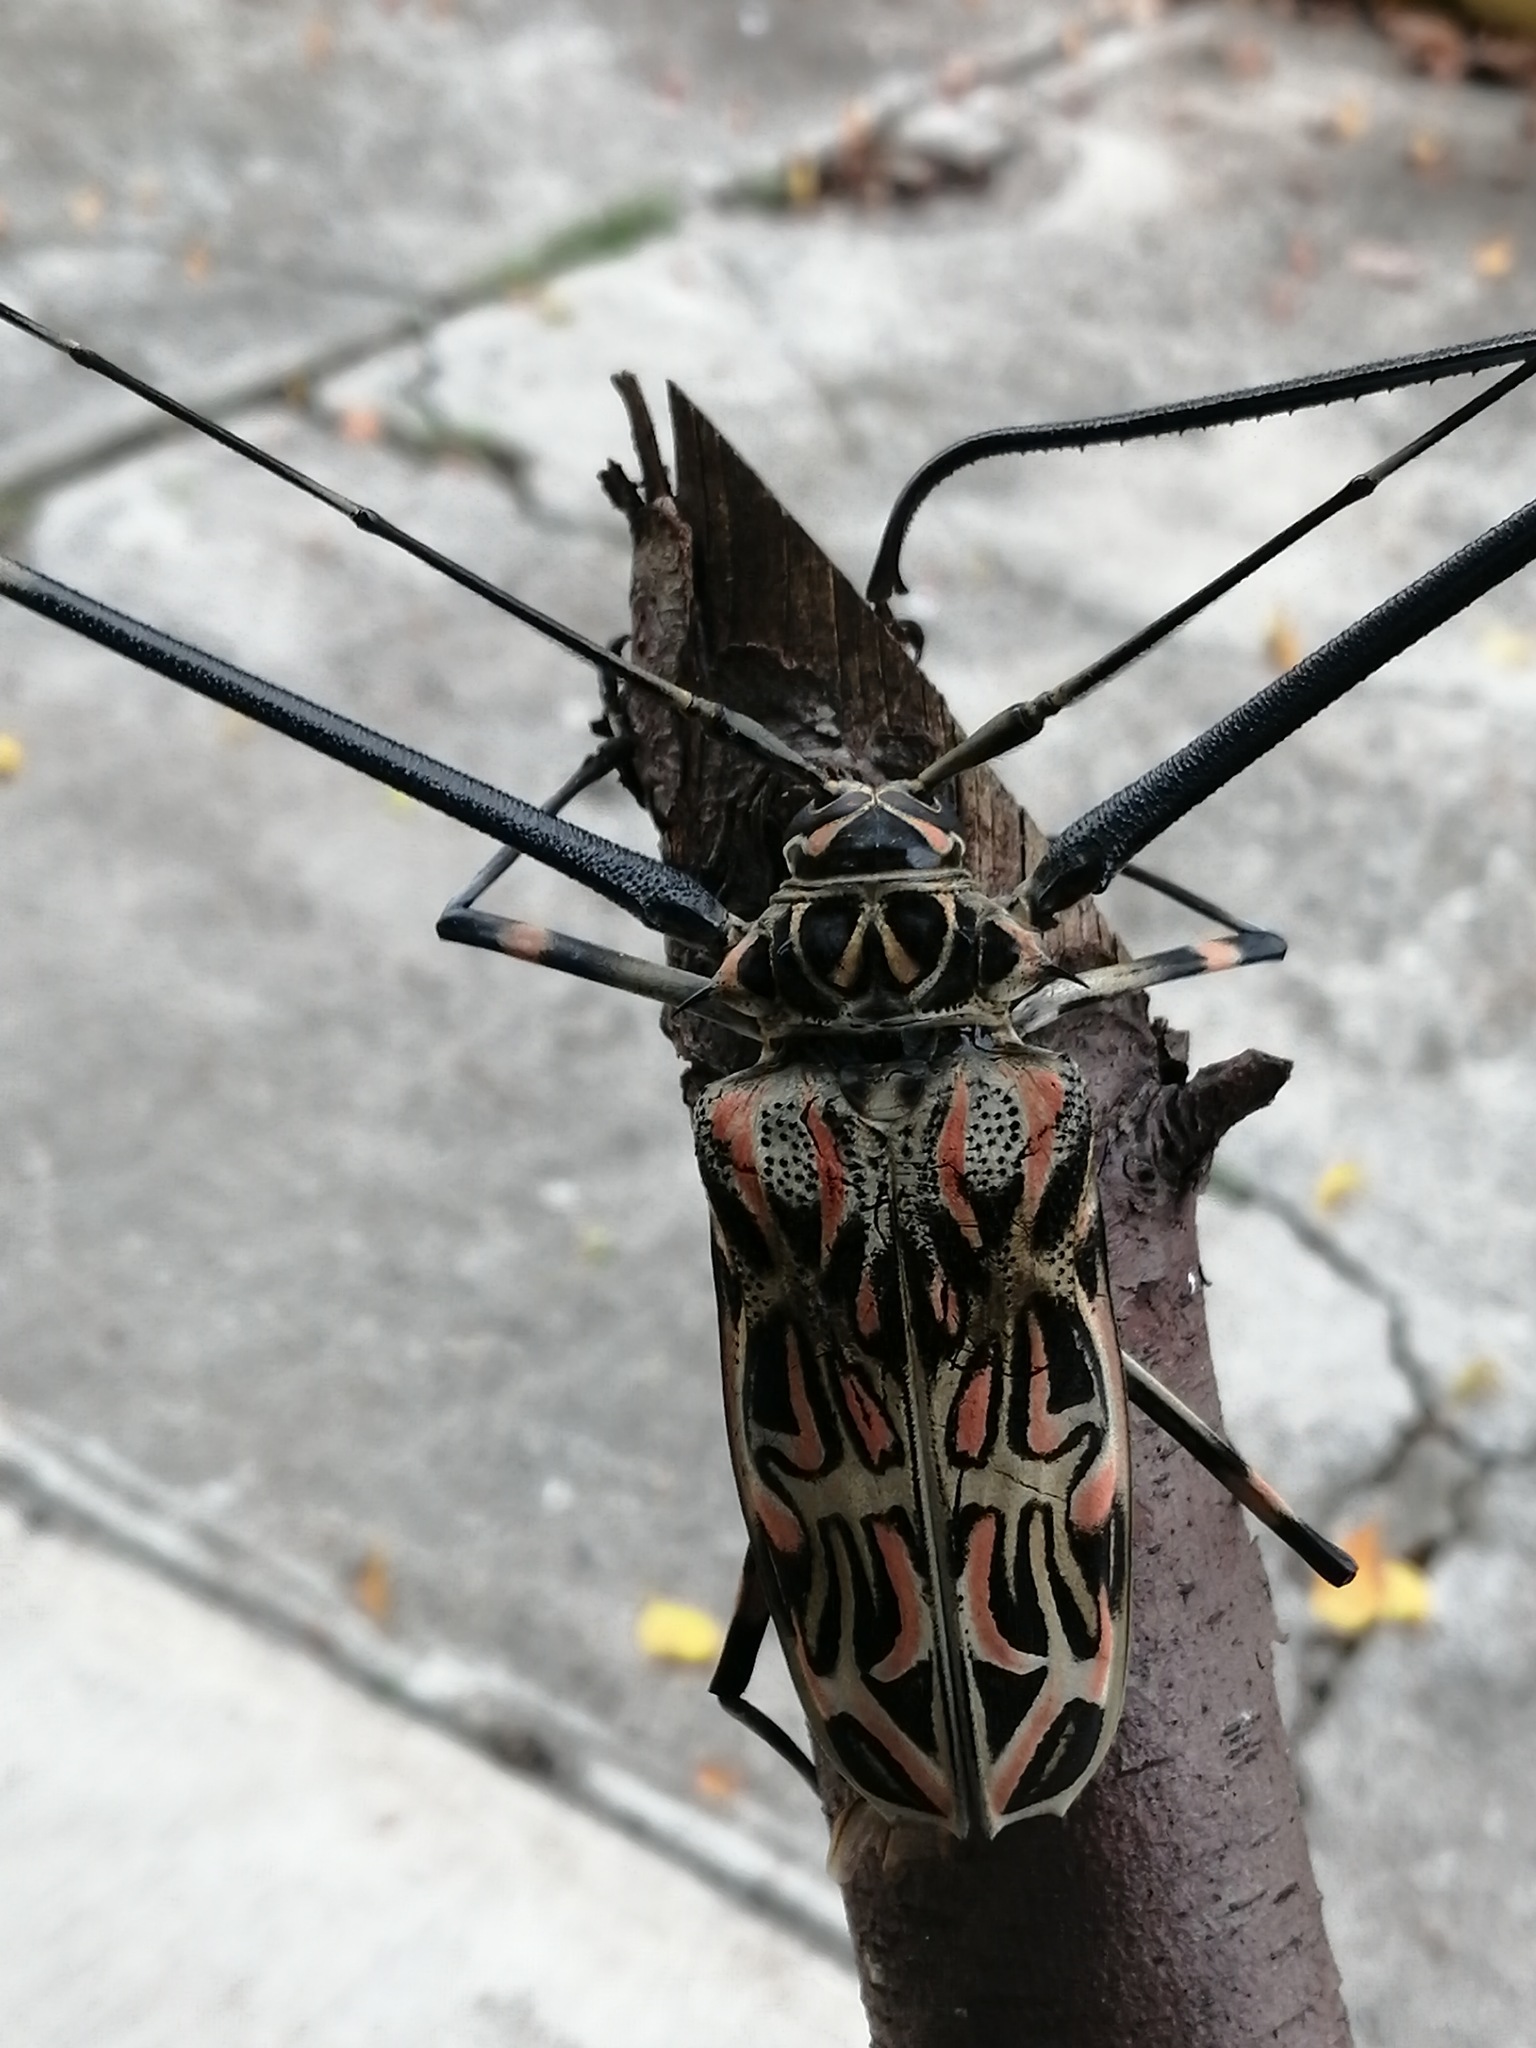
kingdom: Animalia
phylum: Arthropoda
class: Insecta
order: Coleoptera
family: Cerambycidae
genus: Acrocinus
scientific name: Acrocinus longimanus
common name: Arlequin
